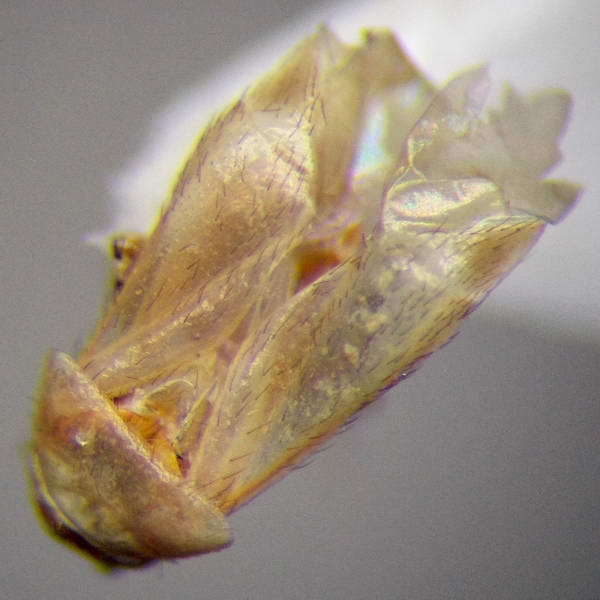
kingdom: Animalia
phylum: Arthropoda
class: Insecta
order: Hemiptera
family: Miridae
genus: Campylomma
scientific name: Campylomma verbasci
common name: Mullein bug
